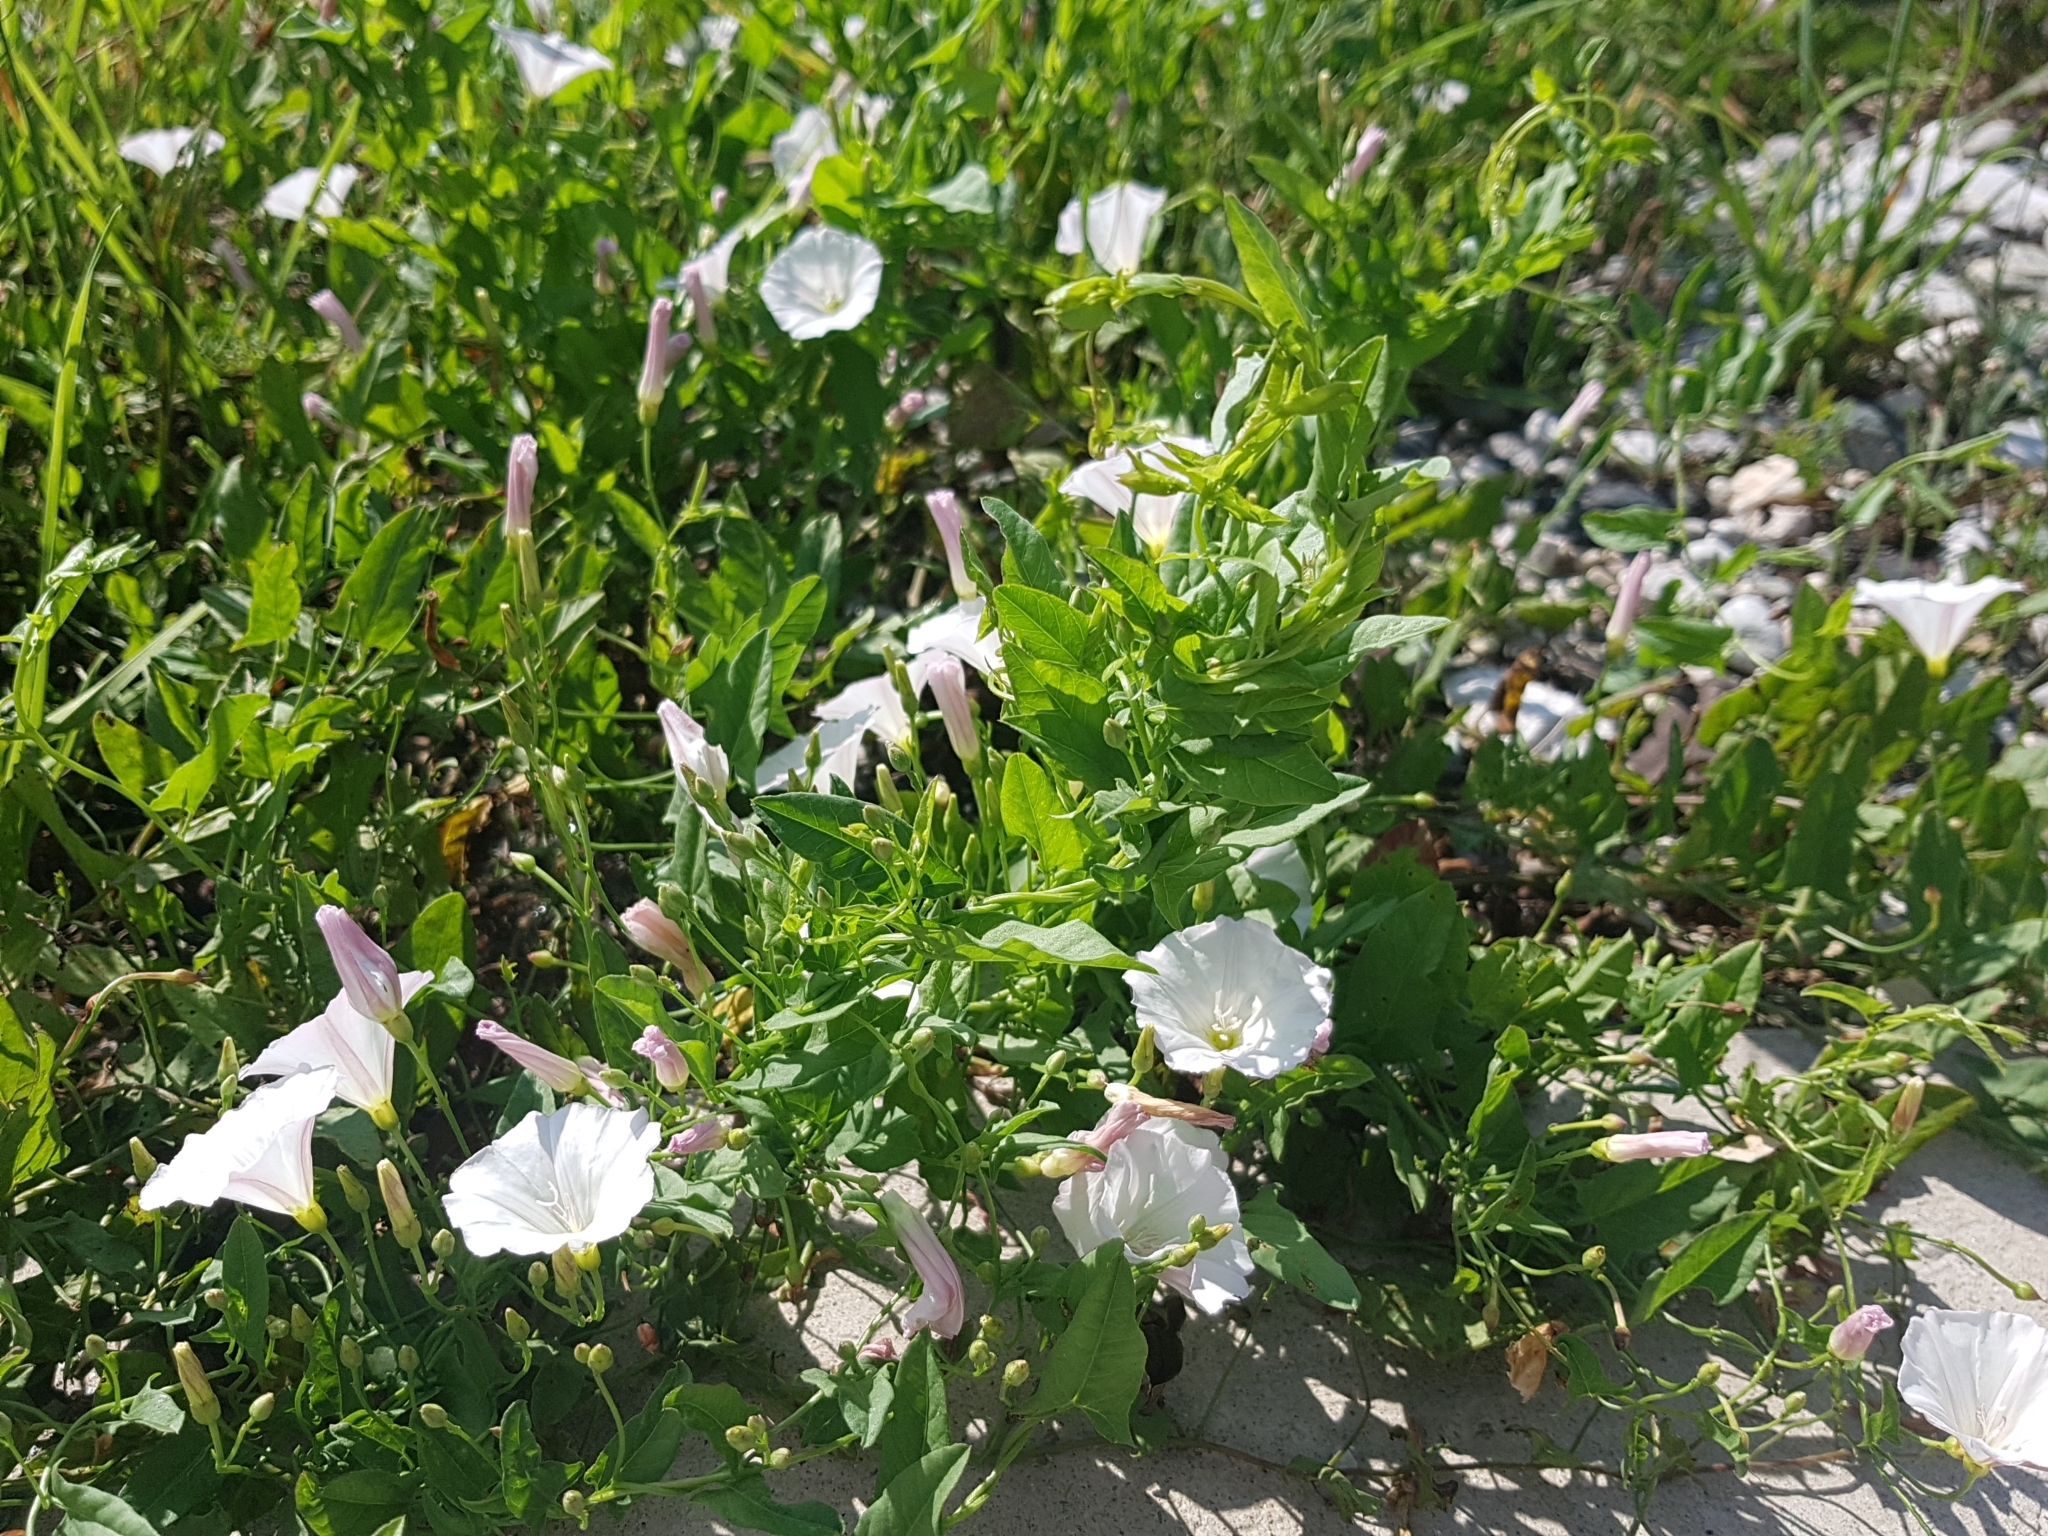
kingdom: Plantae
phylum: Tracheophyta
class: Magnoliopsida
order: Solanales
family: Convolvulaceae
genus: Convolvulus
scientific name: Convolvulus arvensis
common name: Field bindweed
